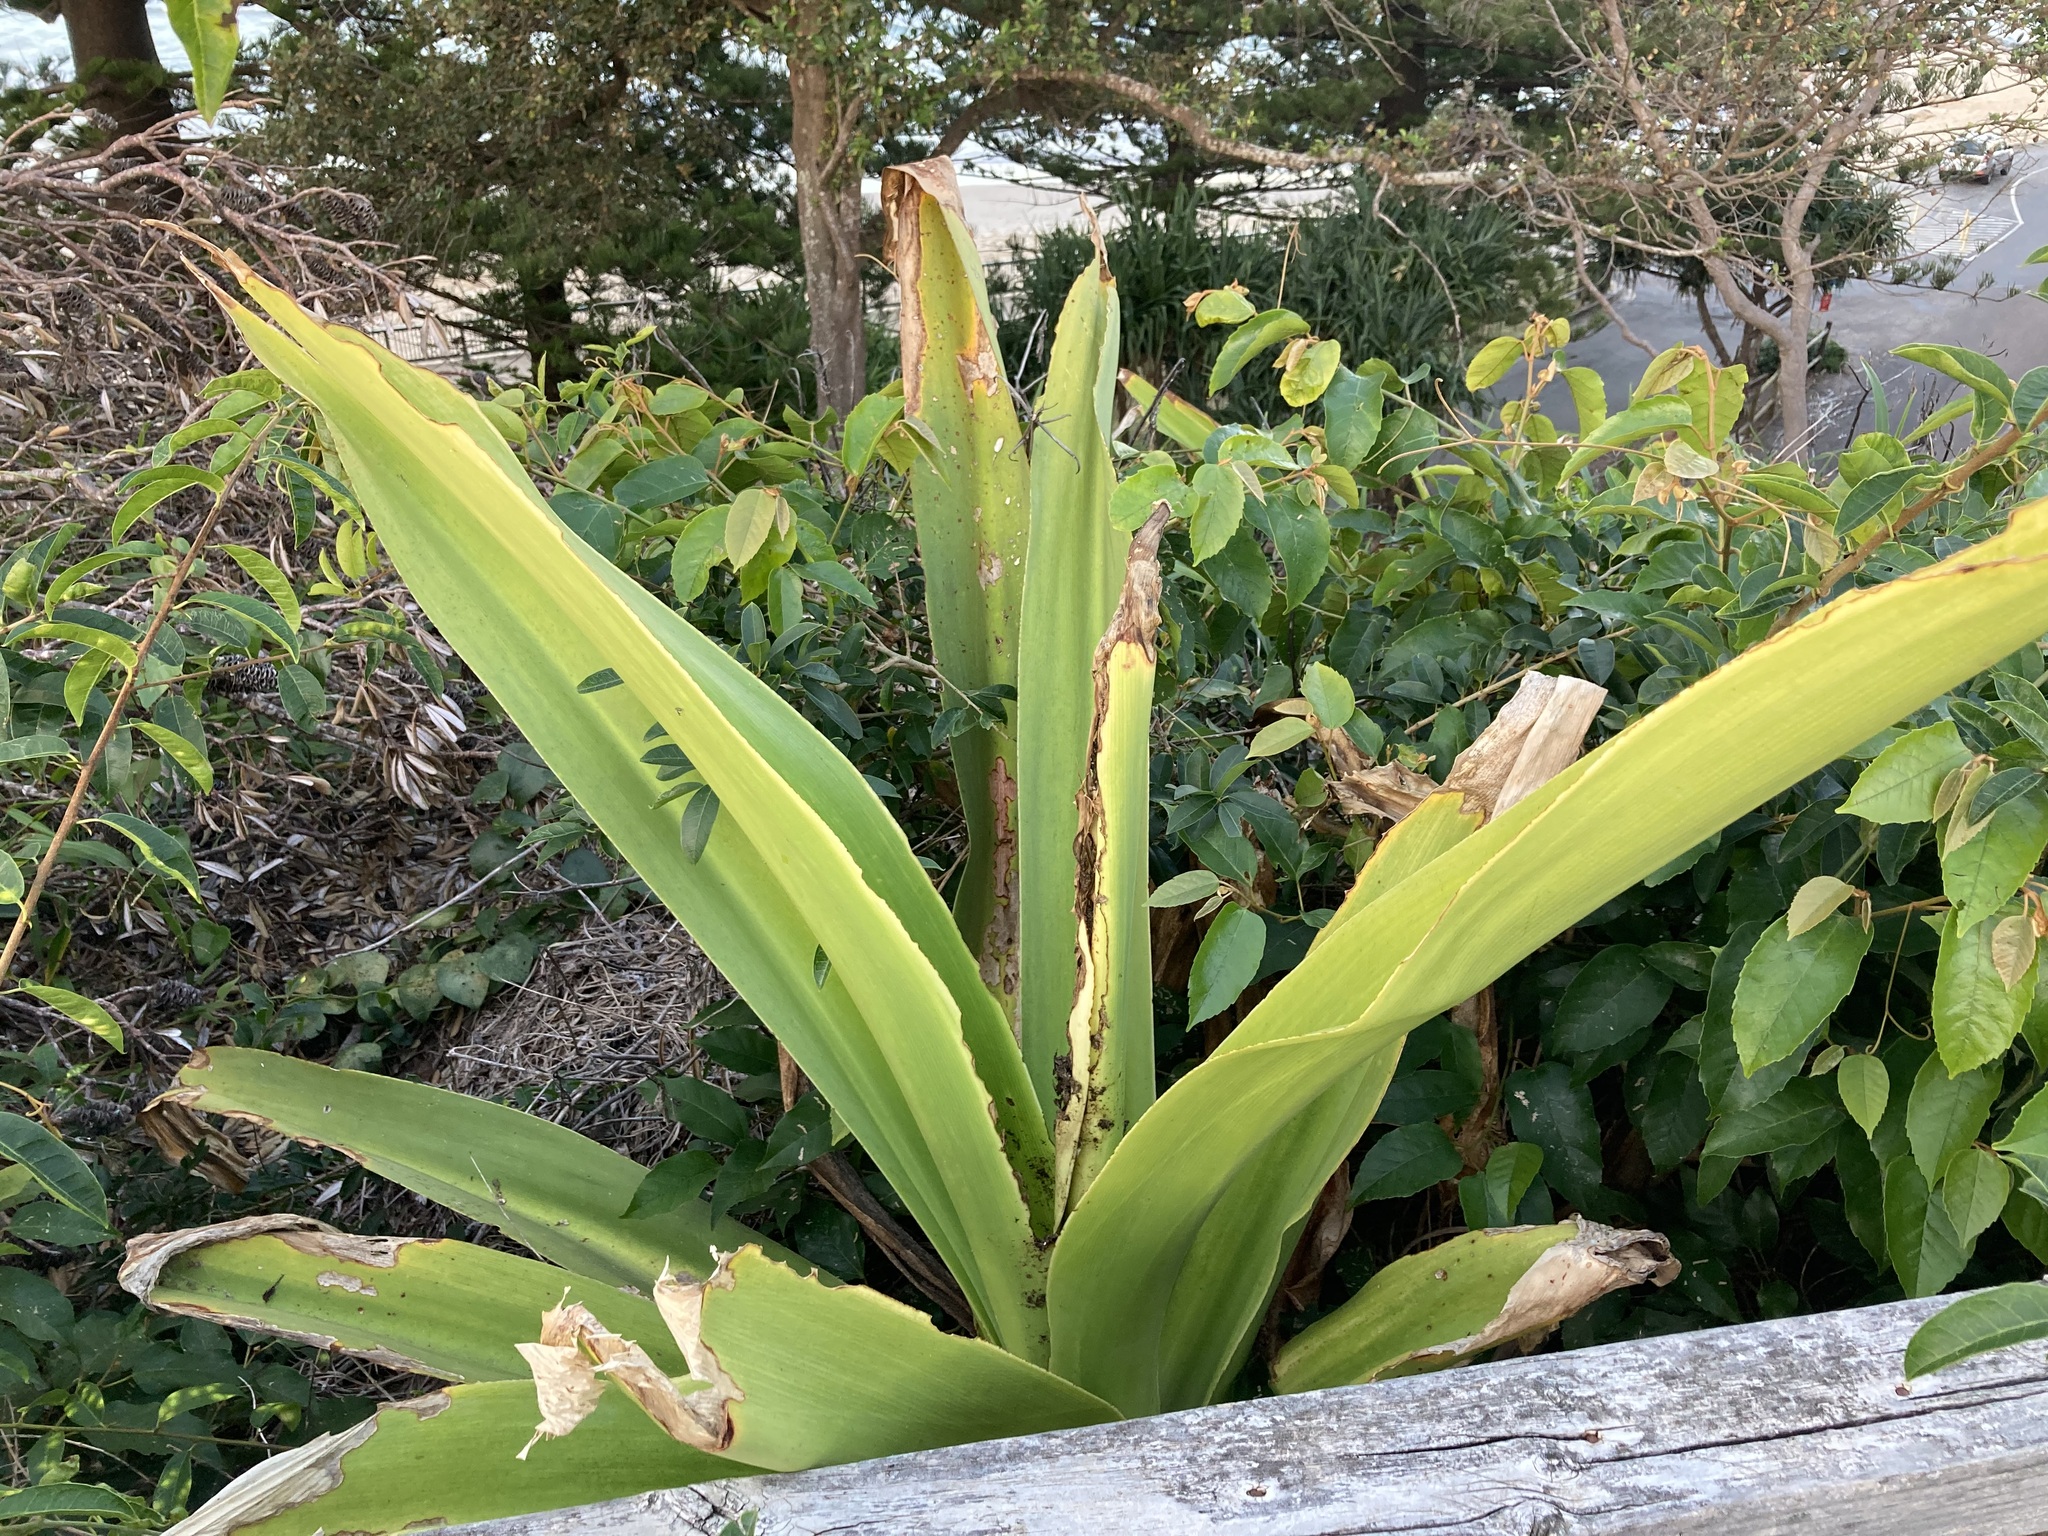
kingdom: Plantae
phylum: Tracheophyta
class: Liliopsida
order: Asparagales
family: Amaryllidaceae
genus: Crinum
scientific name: Crinum pedunculatum
